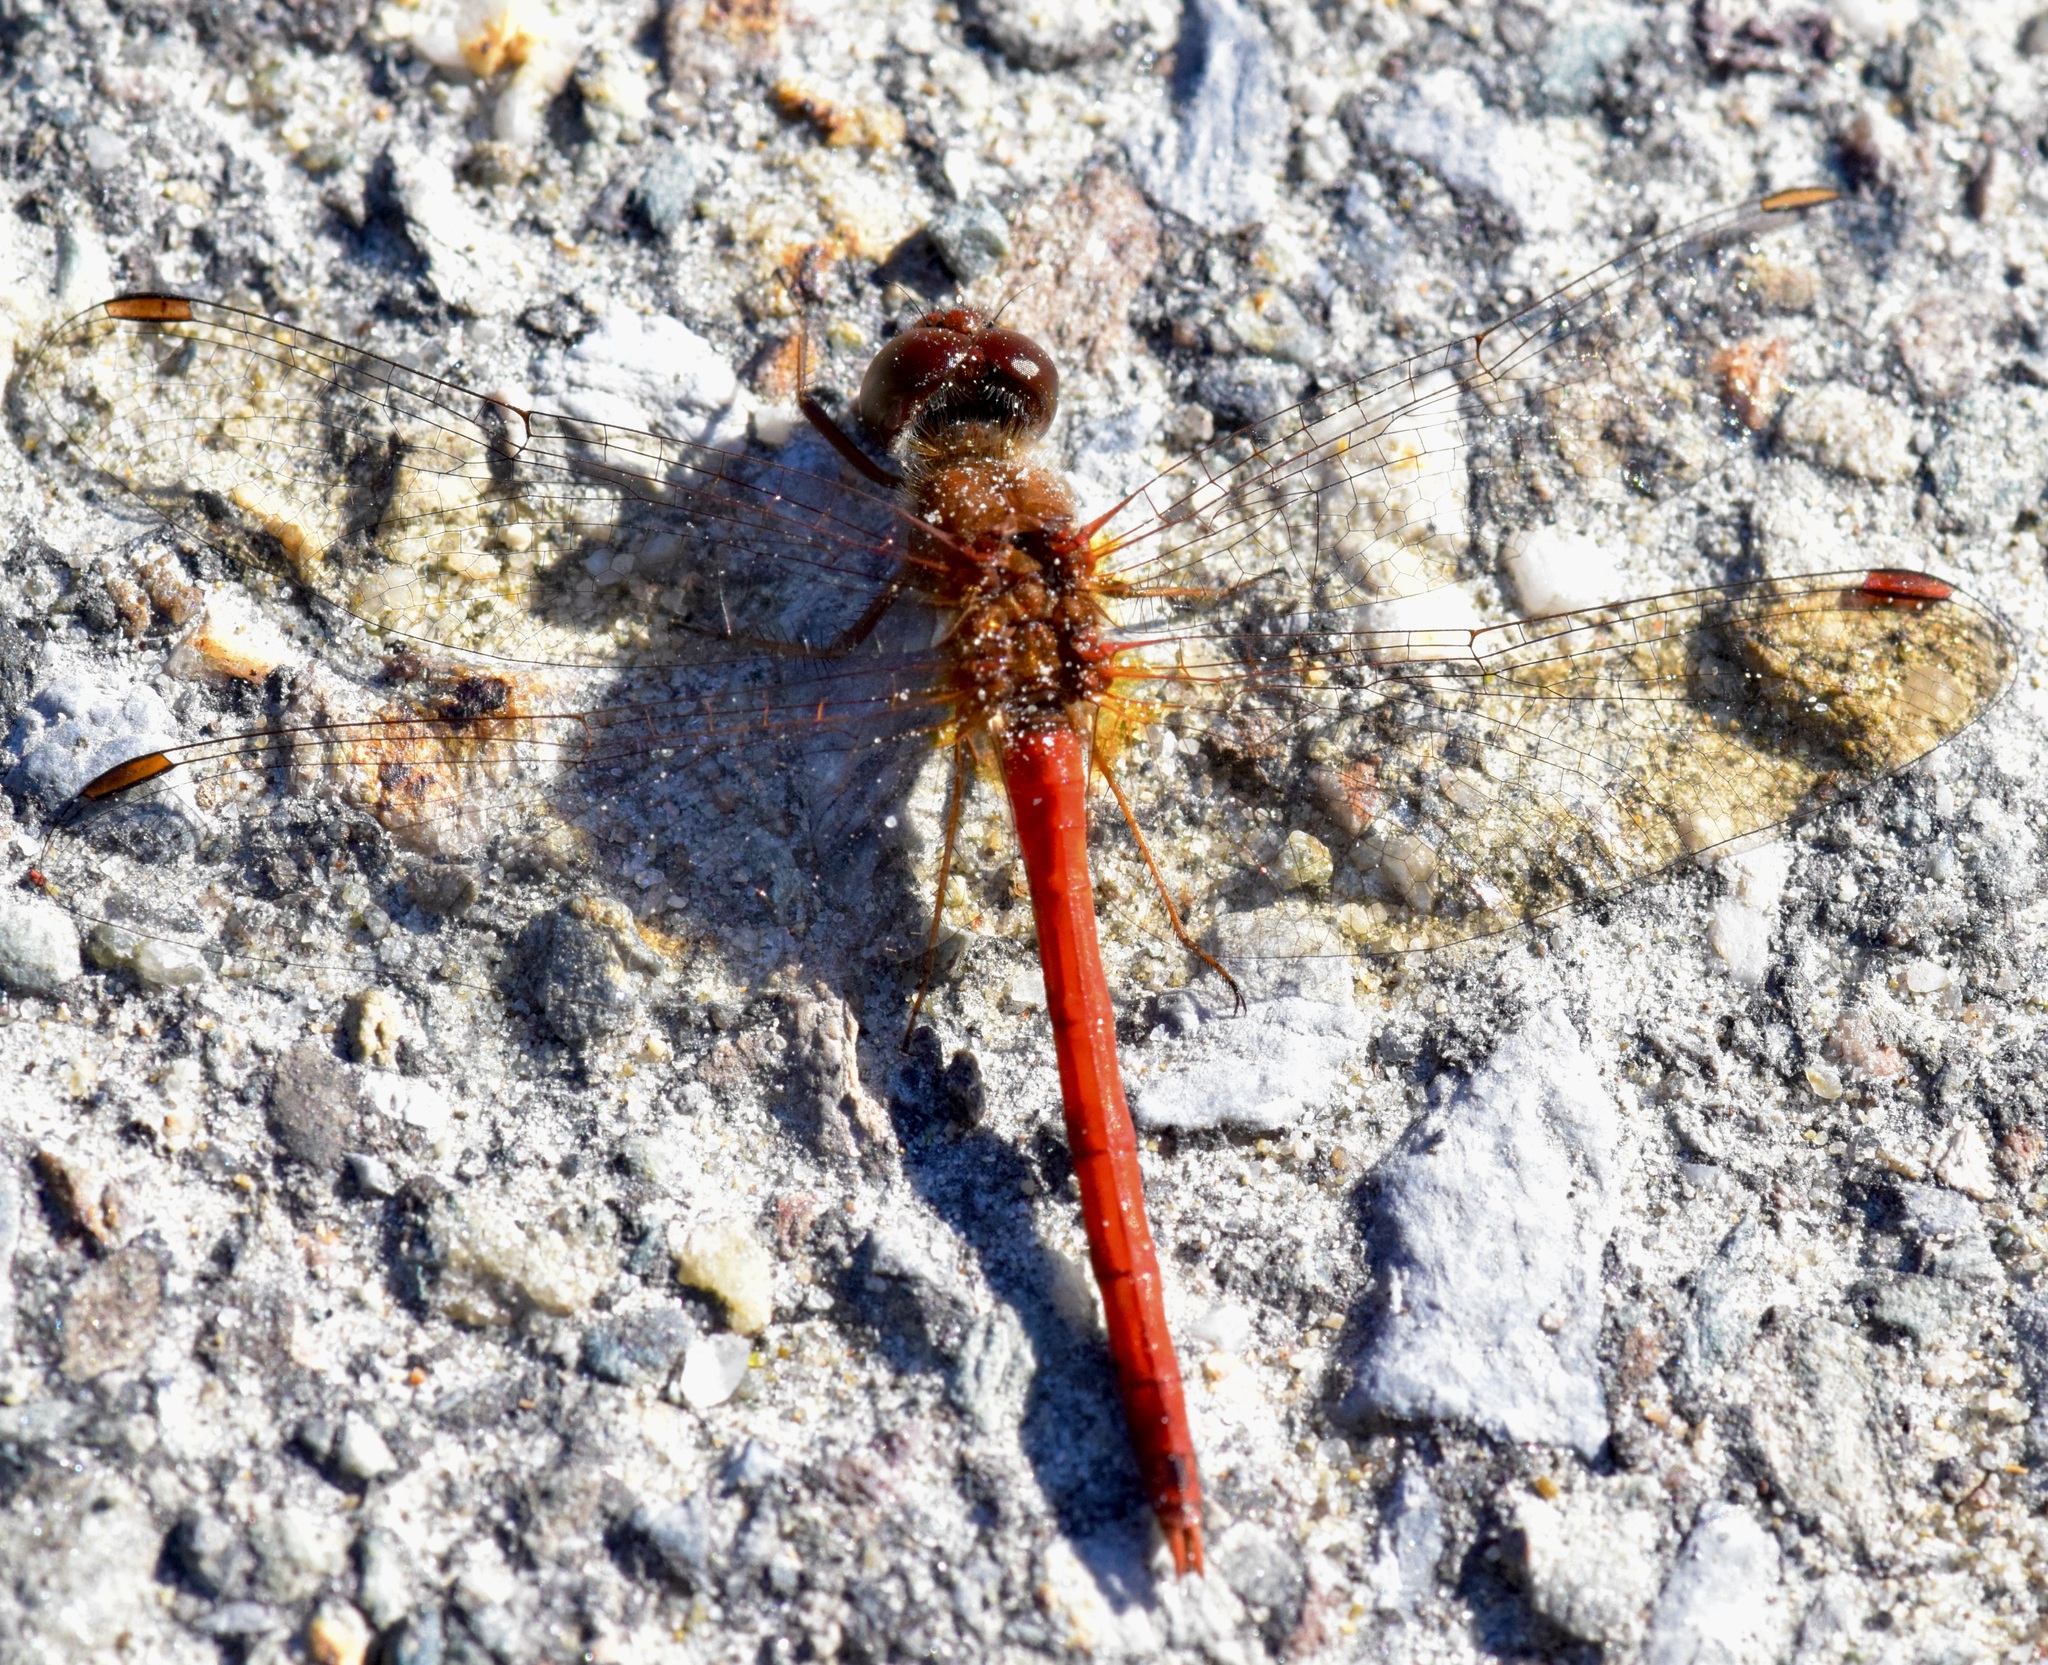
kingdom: Animalia
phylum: Arthropoda
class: Insecta
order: Odonata
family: Libellulidae
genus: Sympetrum
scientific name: Sympetrum vicinum
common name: Autumn meadowhawk
